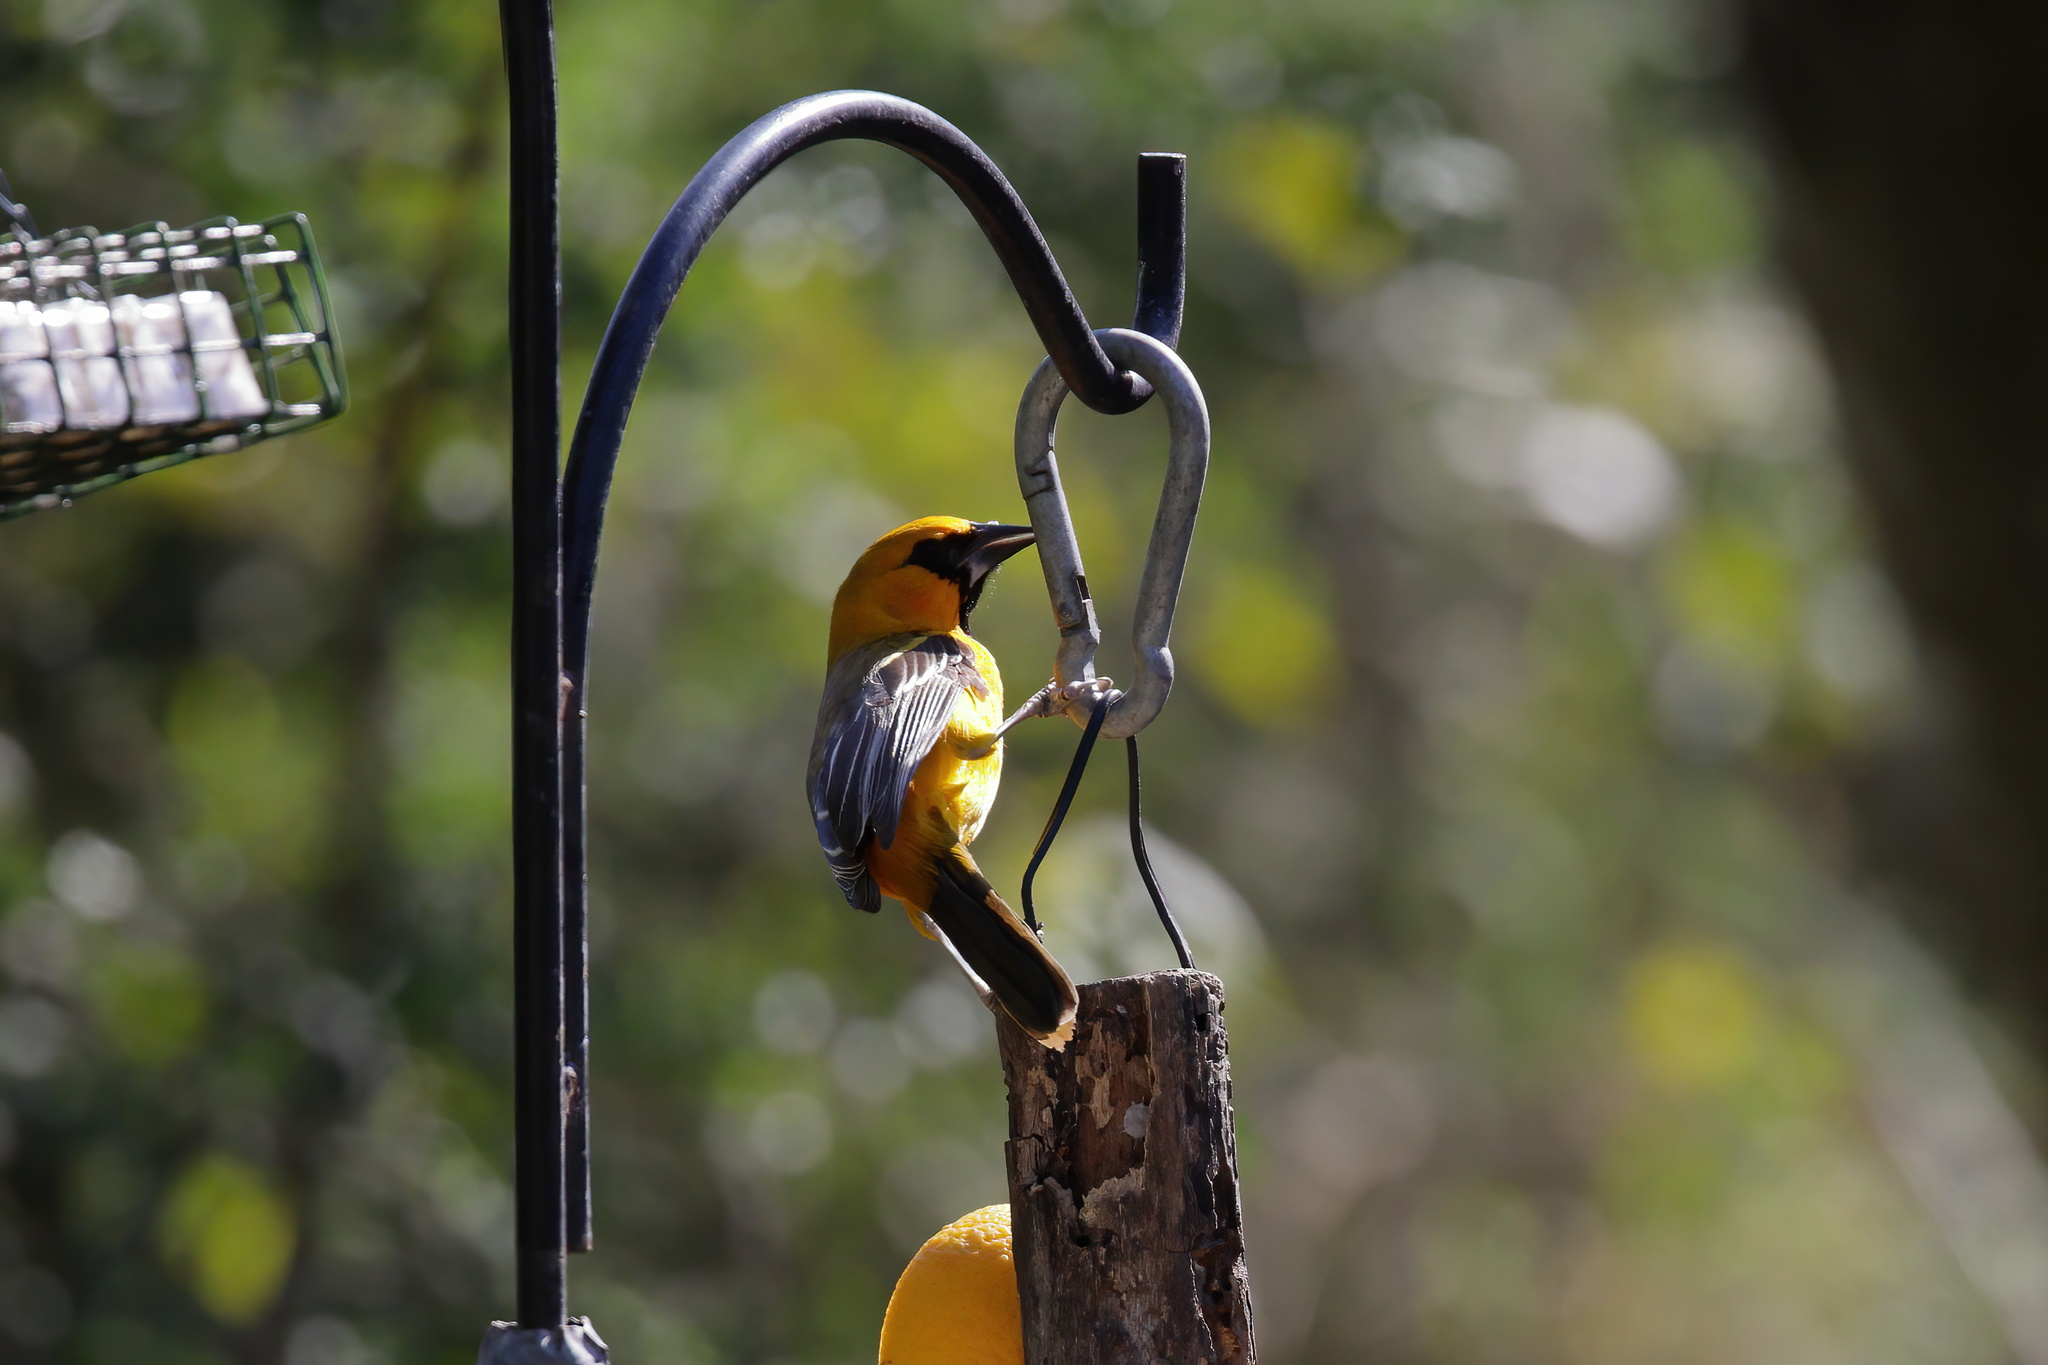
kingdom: Animalia
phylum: Chordata
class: Aves
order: Passeriformes
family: Icteridae
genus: Icterus
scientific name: Icterus gularis
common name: Altamira oriole
